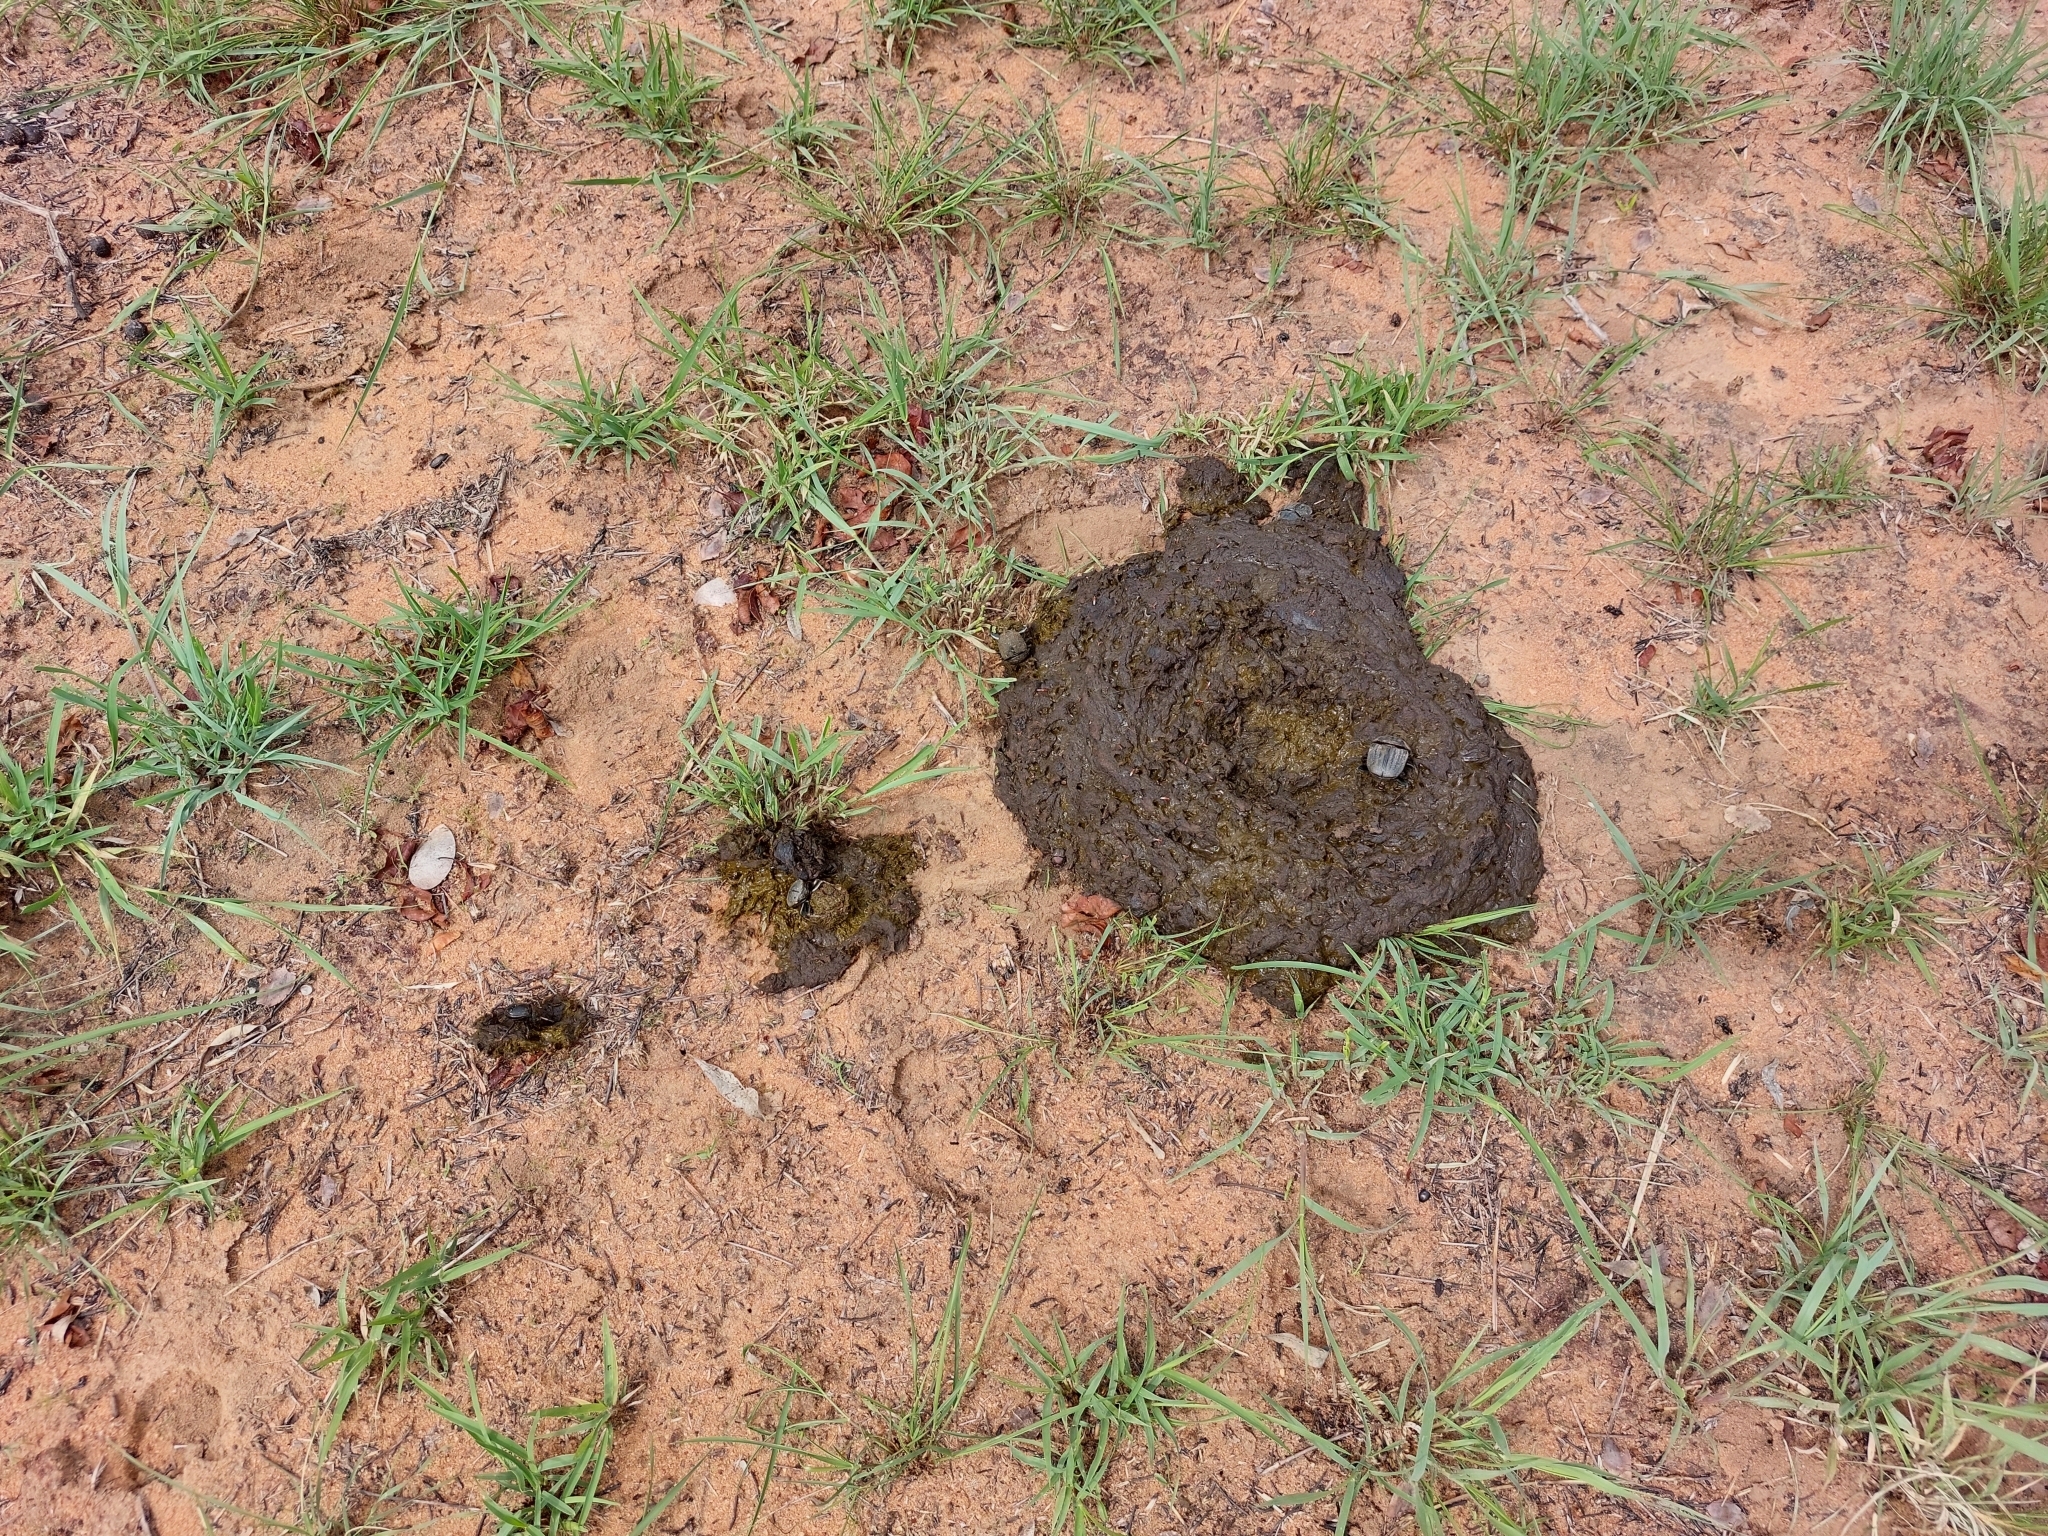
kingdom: Animalia
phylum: Chordata
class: Mammalia
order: Artiodactyla
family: Bovidae
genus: Syncerus
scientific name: Syncerus caffer
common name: African buffalo
